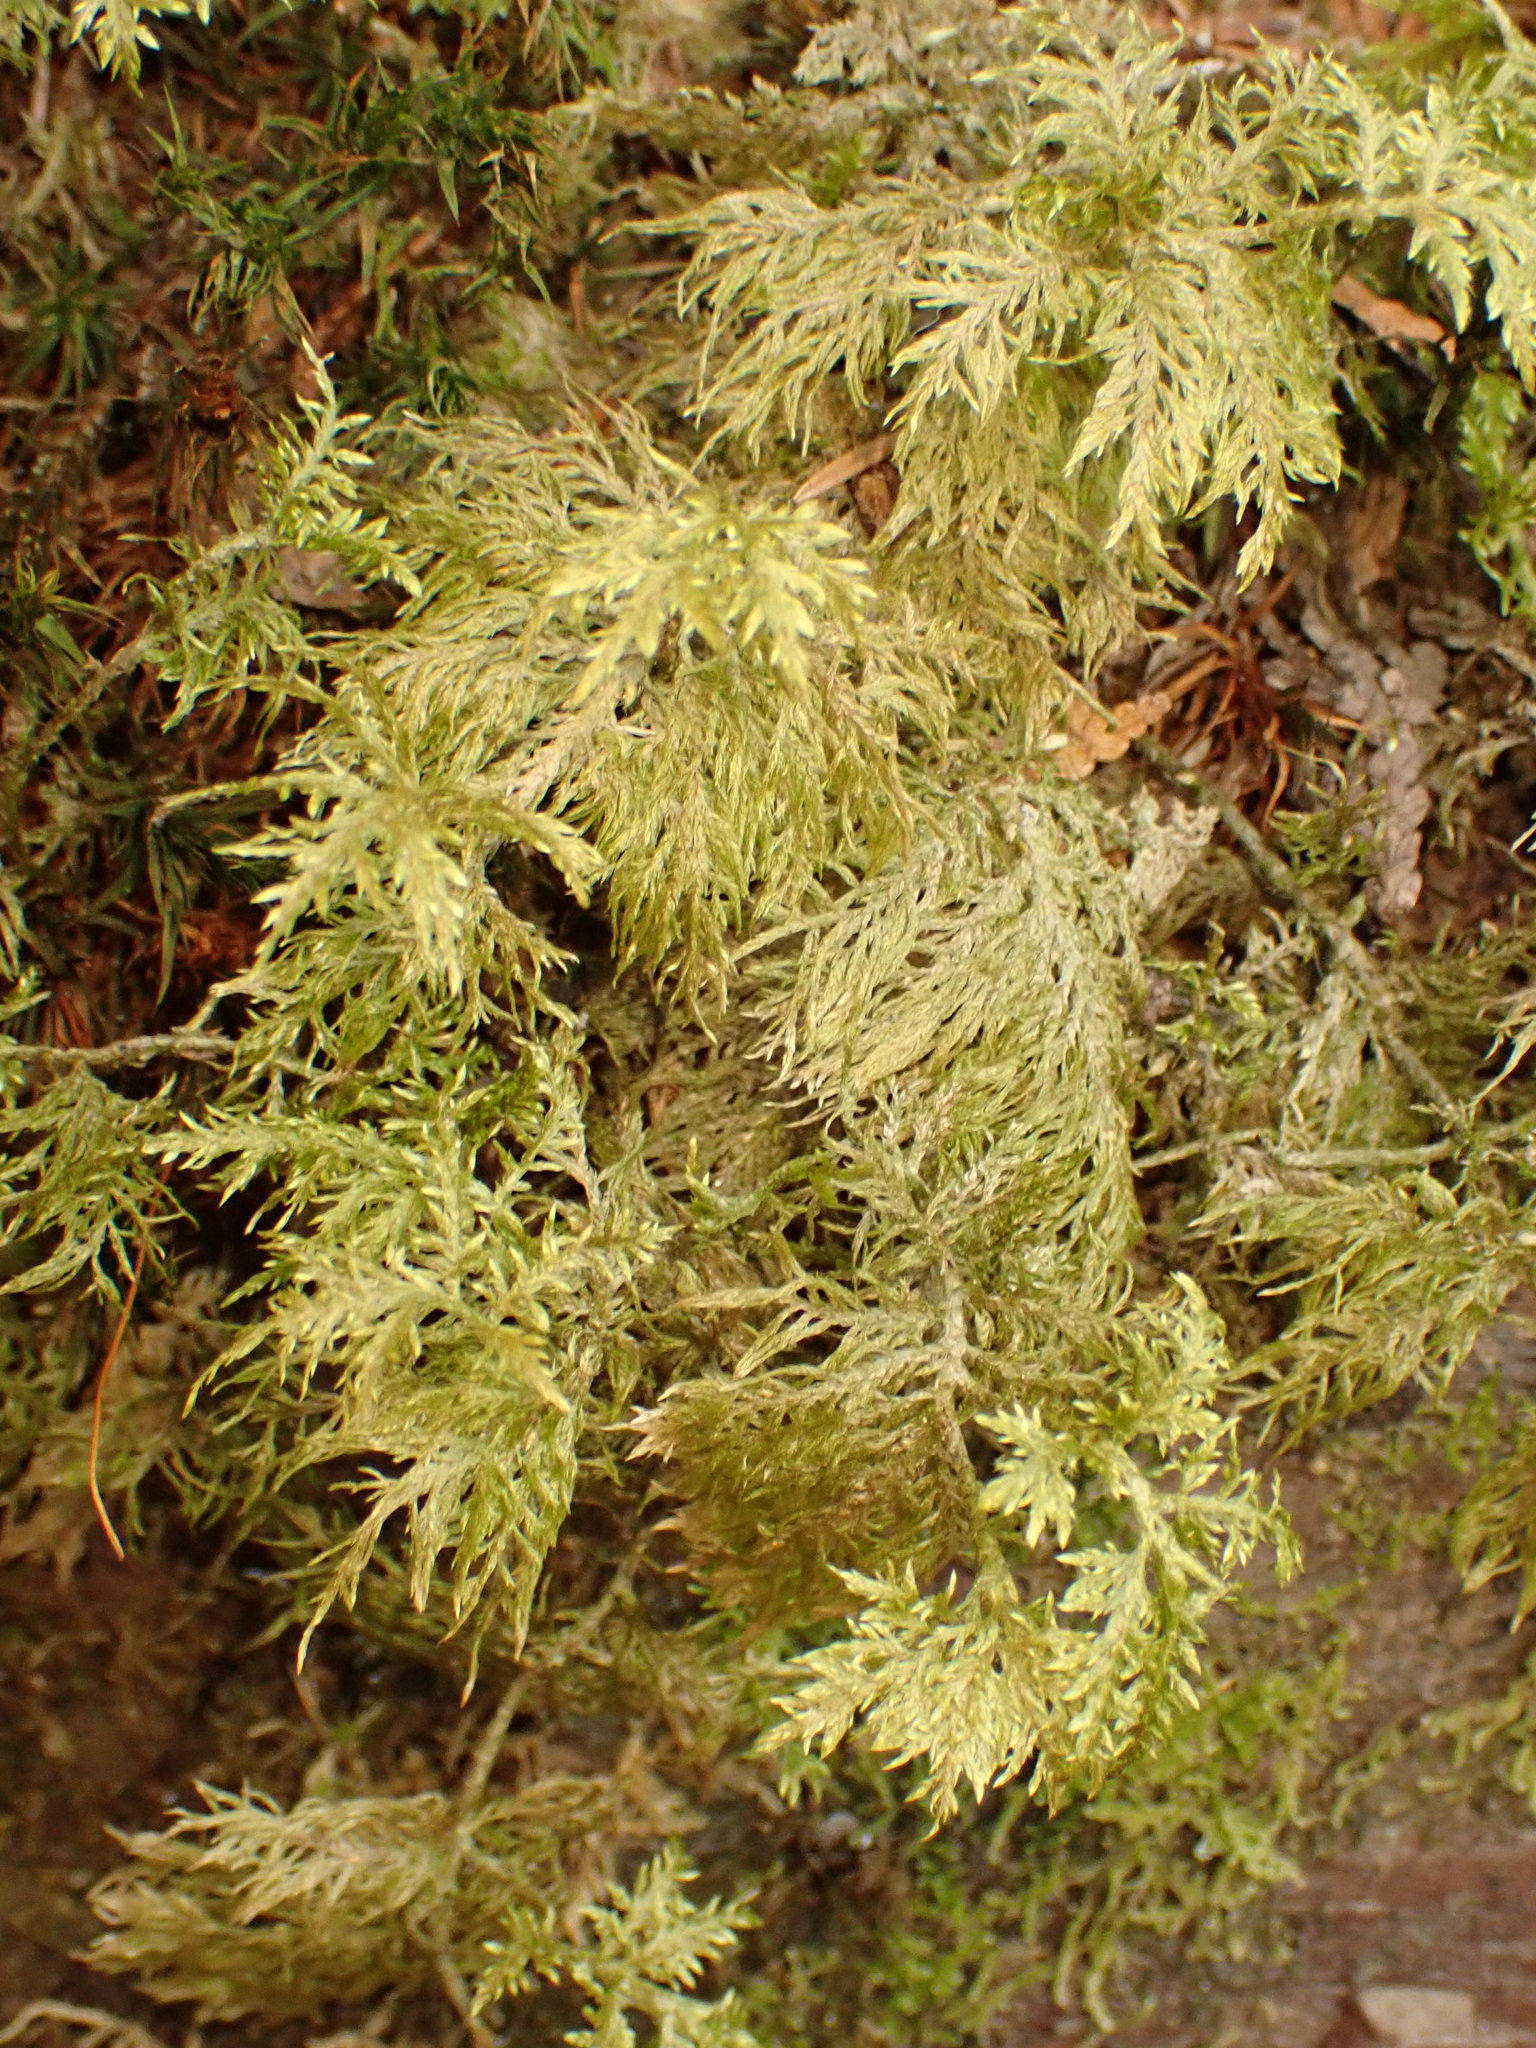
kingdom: Plantae
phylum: Bryophyta
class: Bryopsida
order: Hypnales
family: Hylocomiaceae
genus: Hylocomium
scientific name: Hylocomium splendens
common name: Stairstep moss
